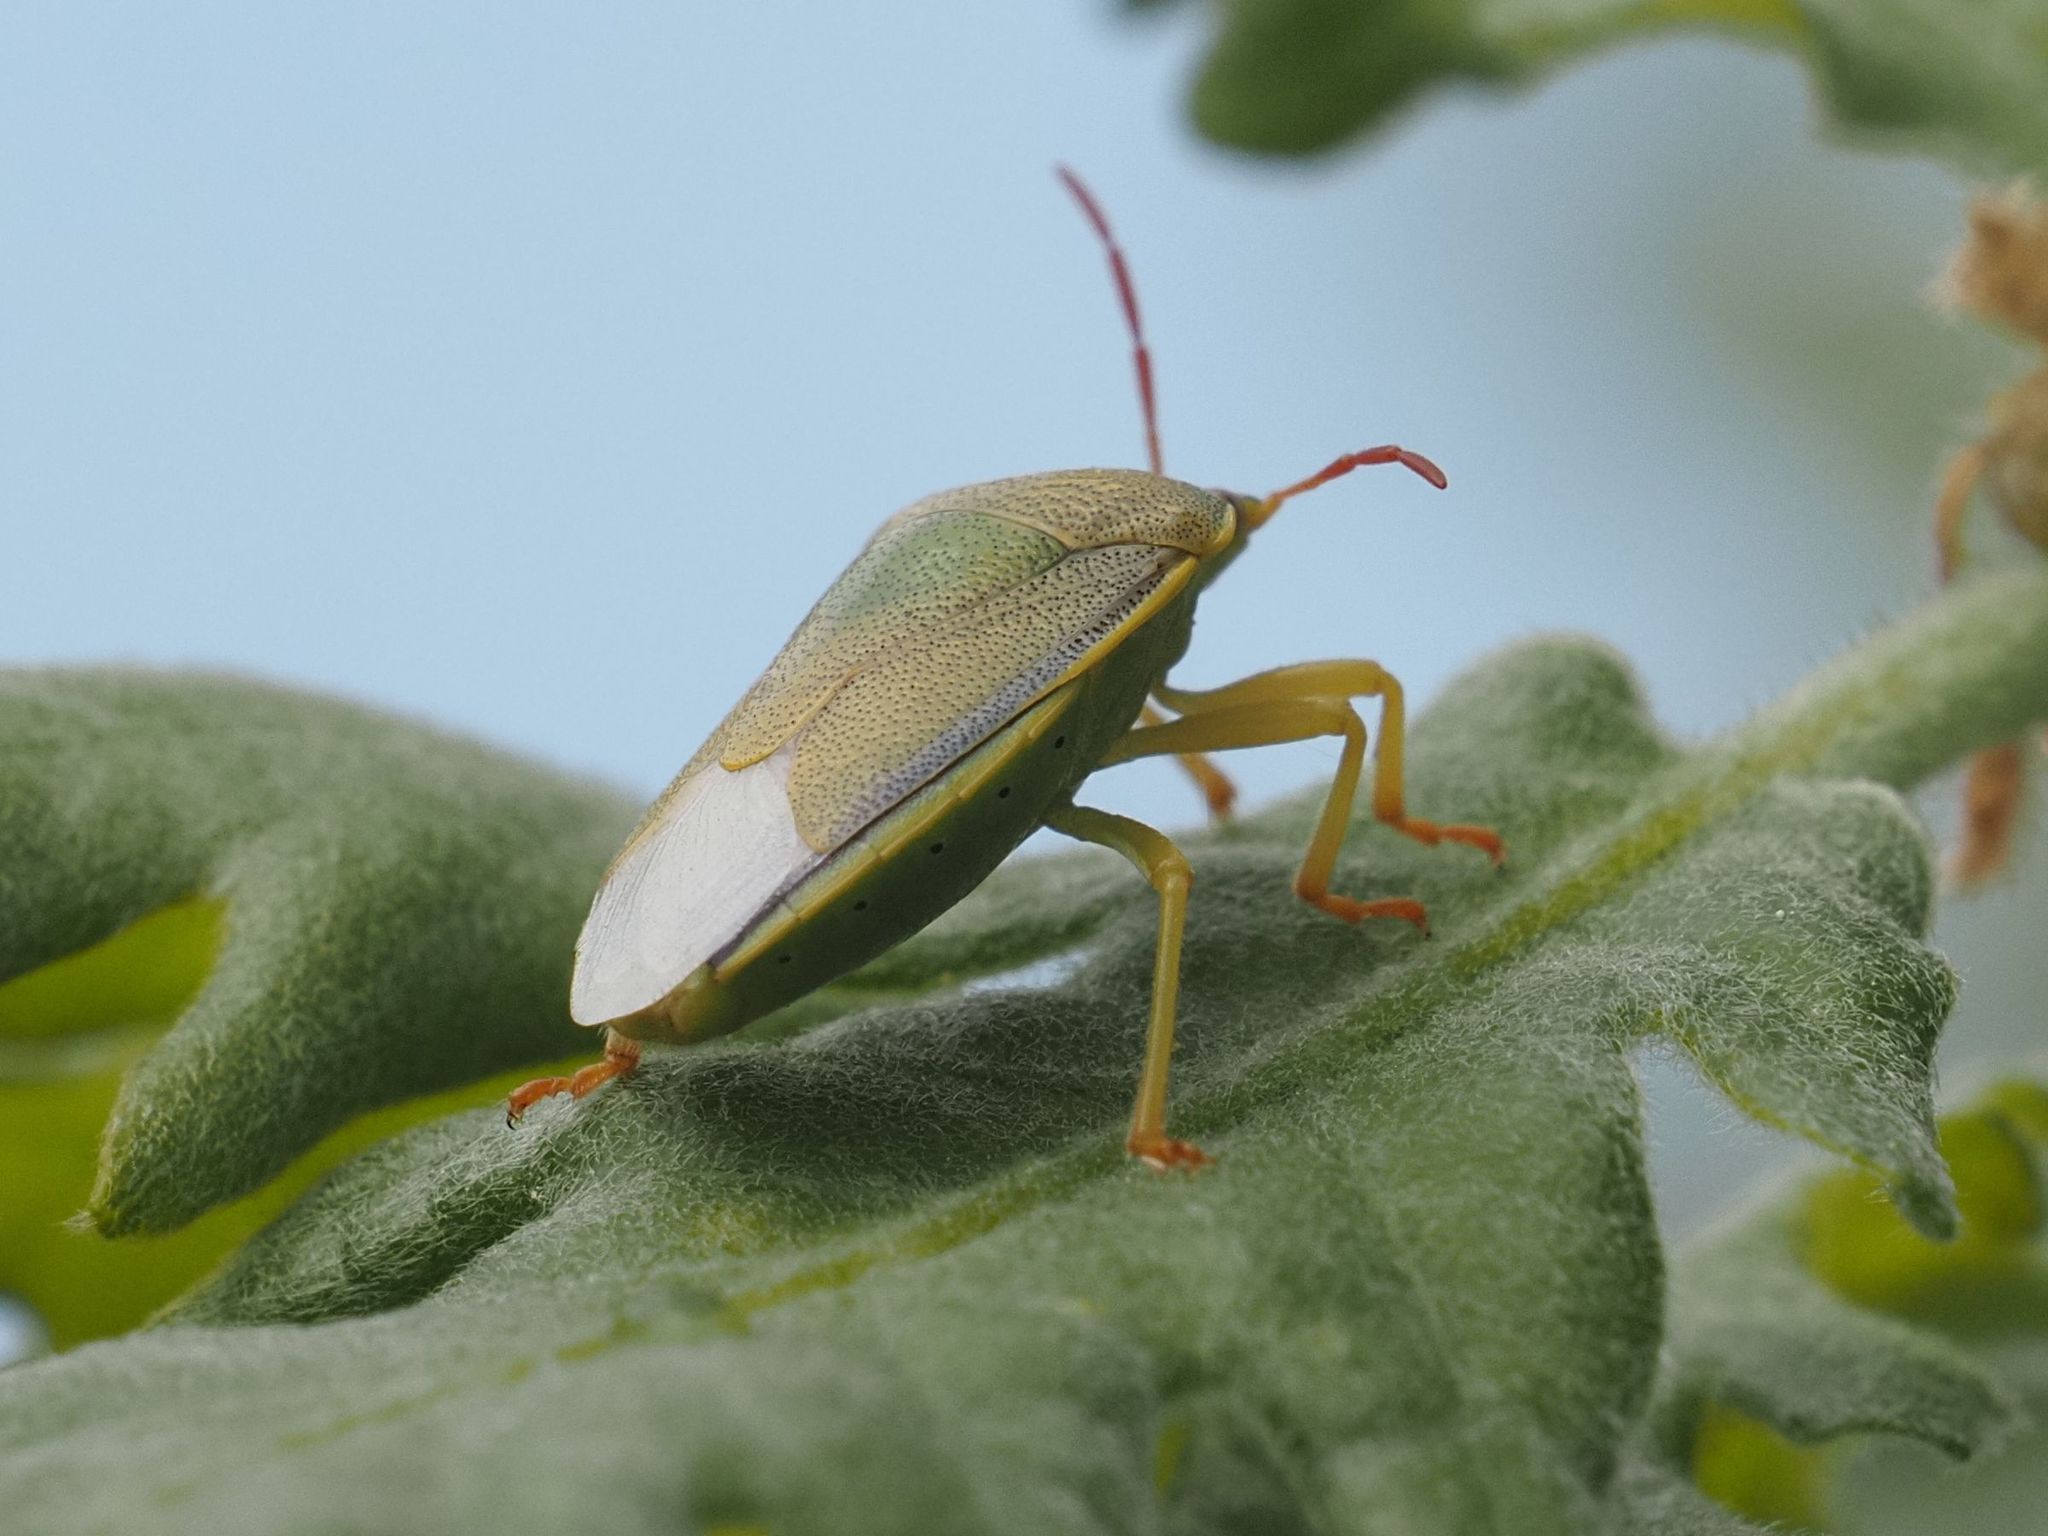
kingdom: Animalia
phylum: Arthropoda
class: Insecta
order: Hemiptera
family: Pentatomidae
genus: Piezodorus
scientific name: Piezodorus lituratus
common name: Stink bug
